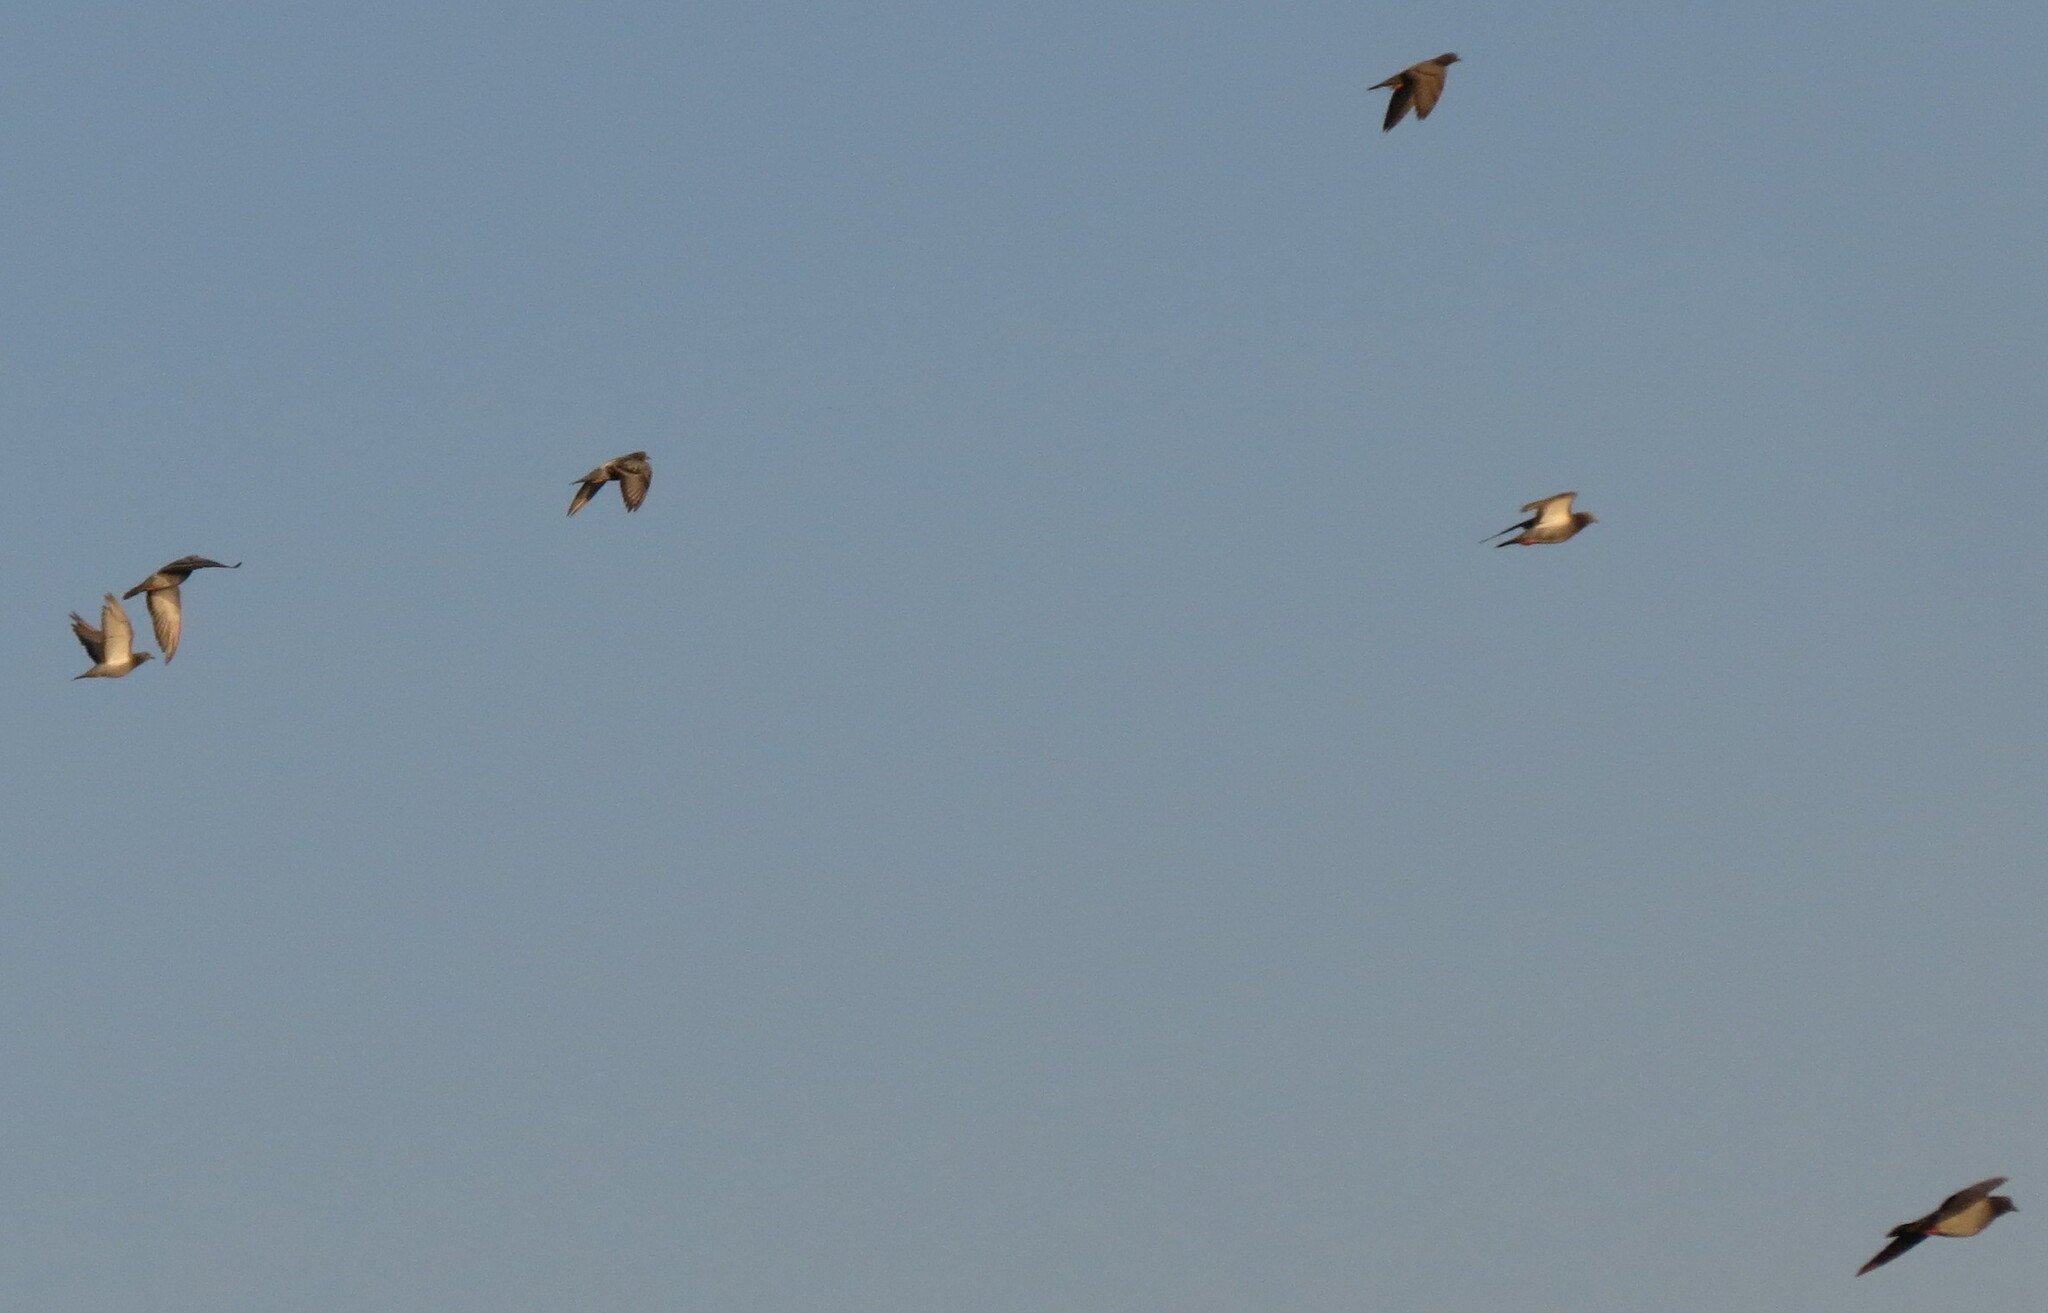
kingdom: Animalia
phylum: Chordata
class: Aves
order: Columbiformes
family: Columbidae
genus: Columba
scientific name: Columba livia
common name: Rock pigeon
